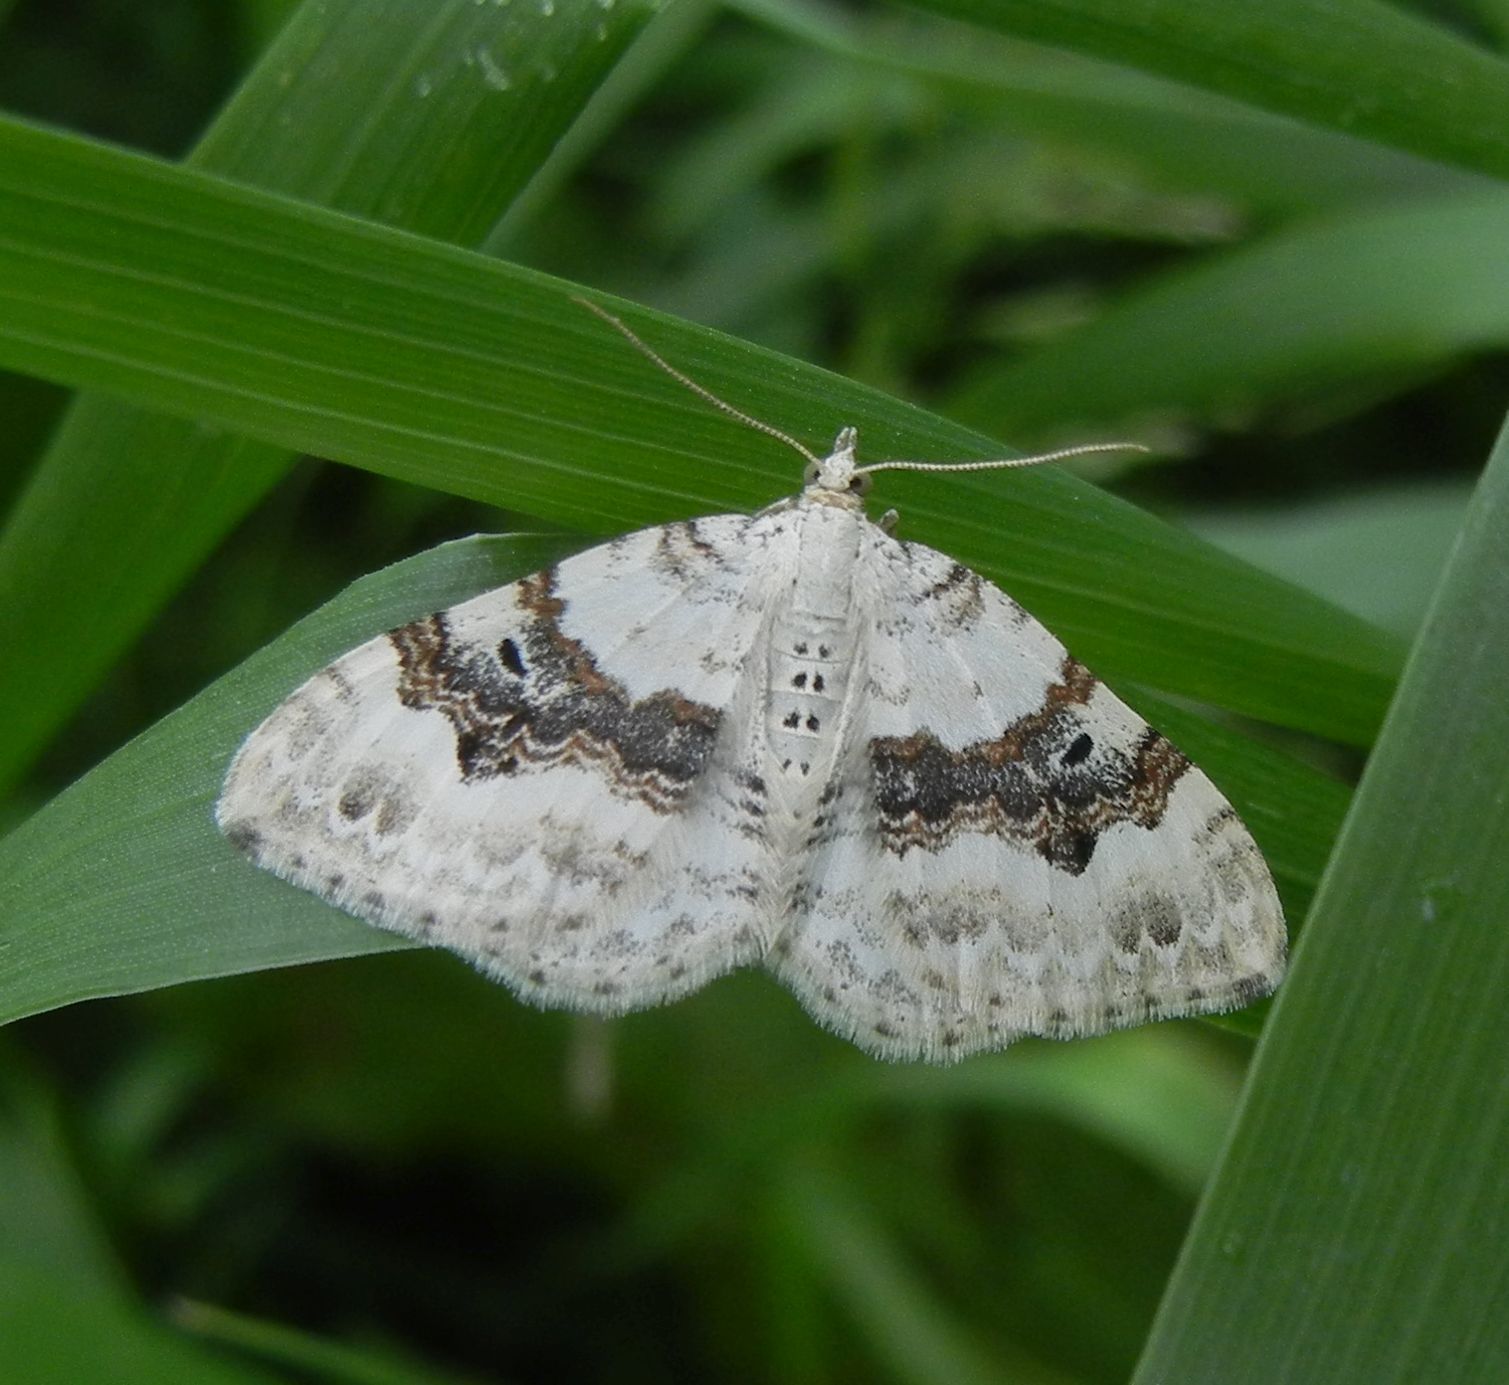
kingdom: Animalia
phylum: Arthropoda
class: Insecta
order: Lepidoptera
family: Geometridae
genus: Xanthorhoe
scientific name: Xanthorhoe montanata
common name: Silver-ground carpet
